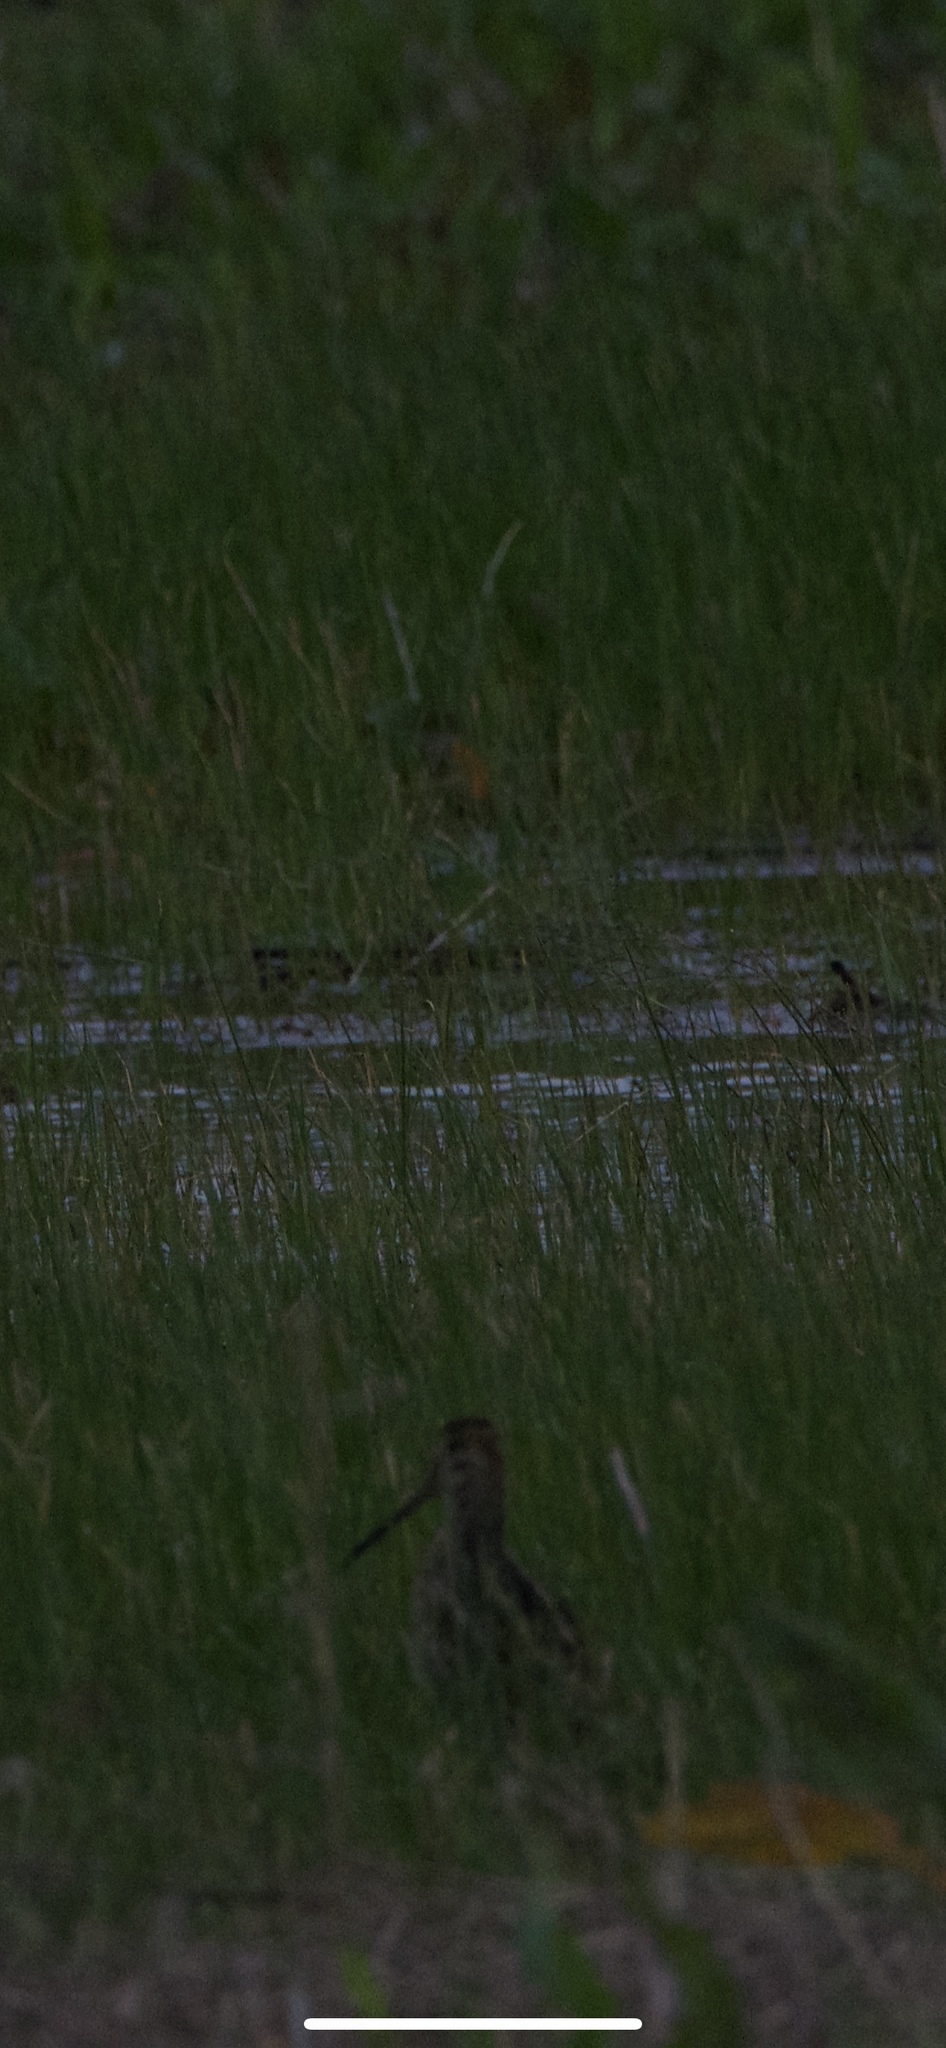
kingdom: Animalia
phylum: Chordata
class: Aves
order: Charadriiformes
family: Scolopacidae
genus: Gallinago
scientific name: Gallinago delicata
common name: Wilson's snipe
